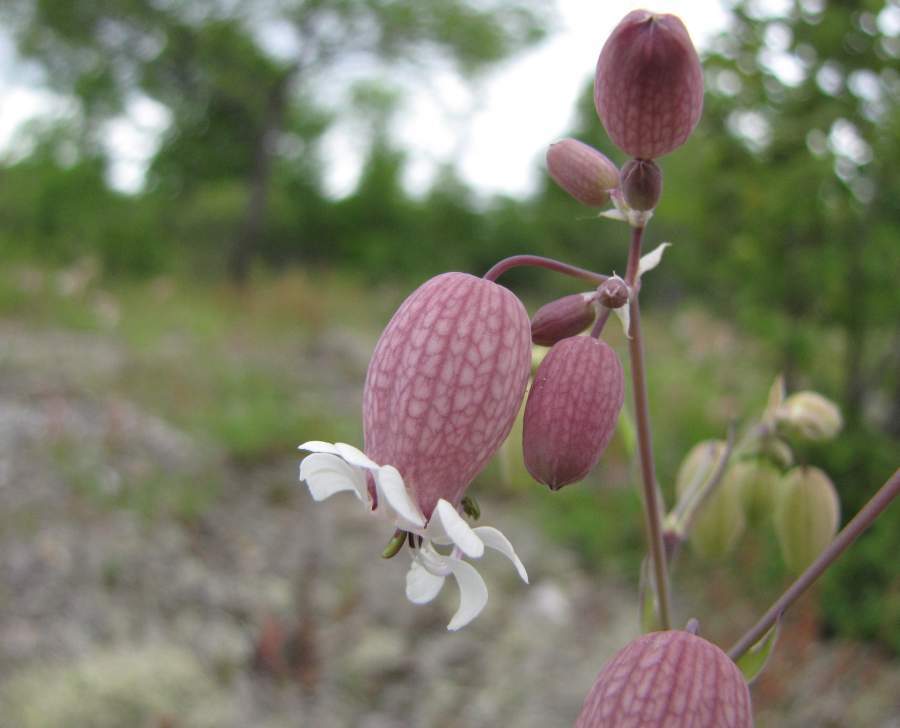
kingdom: Plantae
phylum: Tracheophyta
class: Magnoliopsida
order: Caryophyllales
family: Caryophyllaceae
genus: Silene
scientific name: Silene vulgaris
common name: Bladder campion
